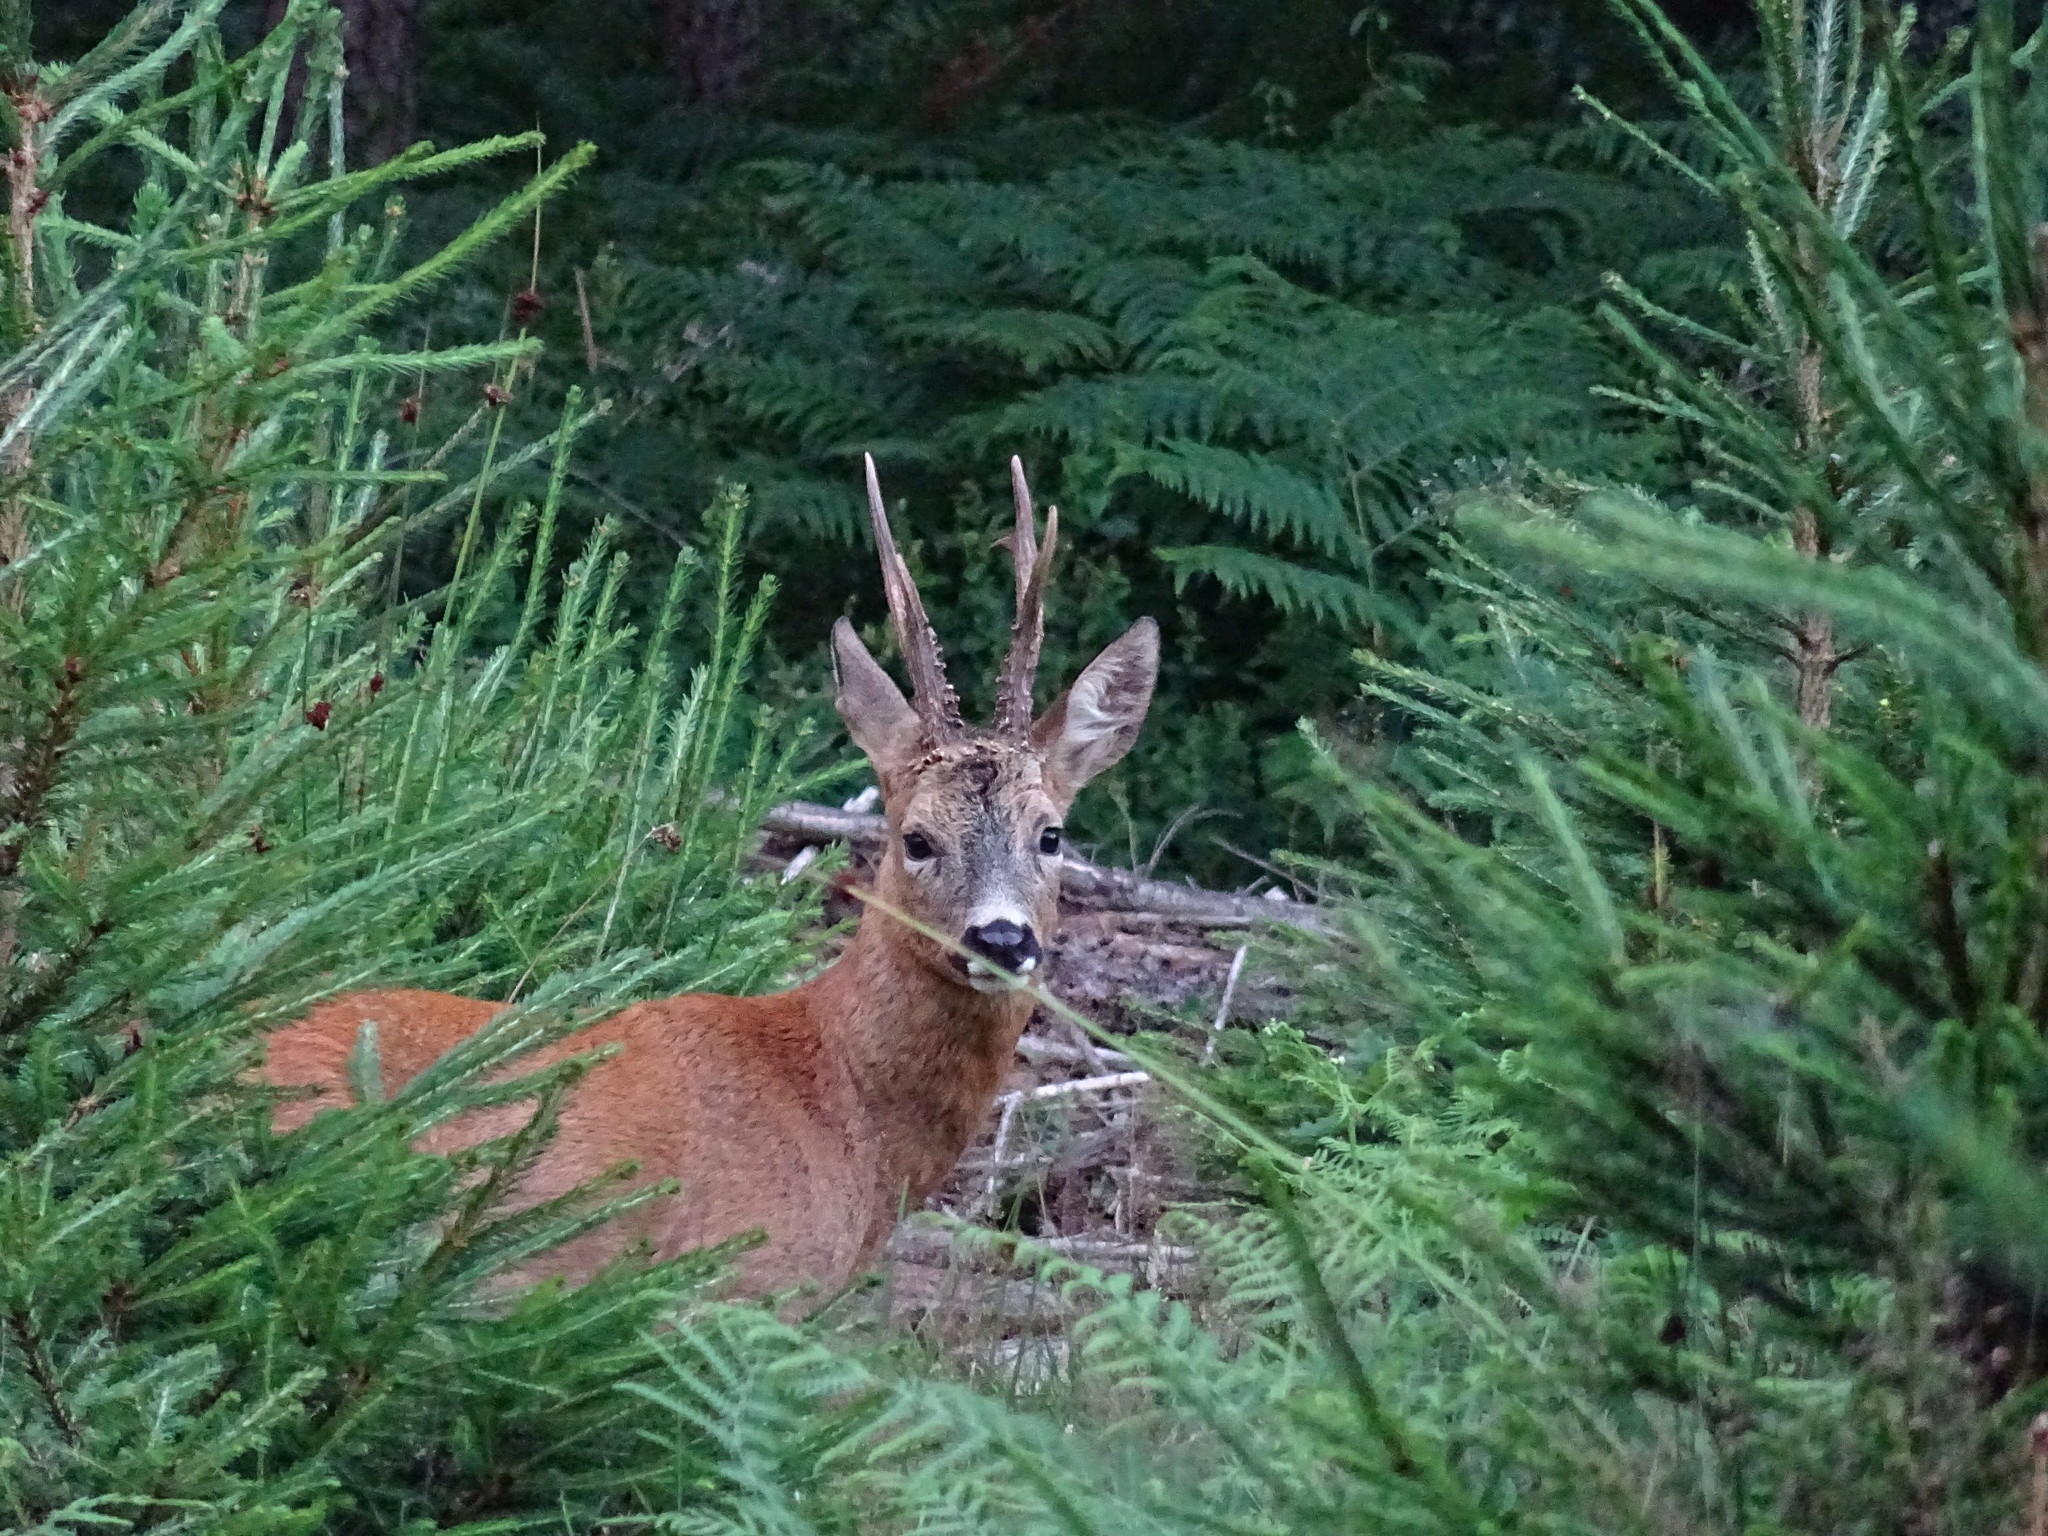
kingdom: Animalia
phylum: Chordata
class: Mammalia
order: Artiodactyla
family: Cervidae
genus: Capreolus
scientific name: Capreolus capreolus
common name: Western roe deer
